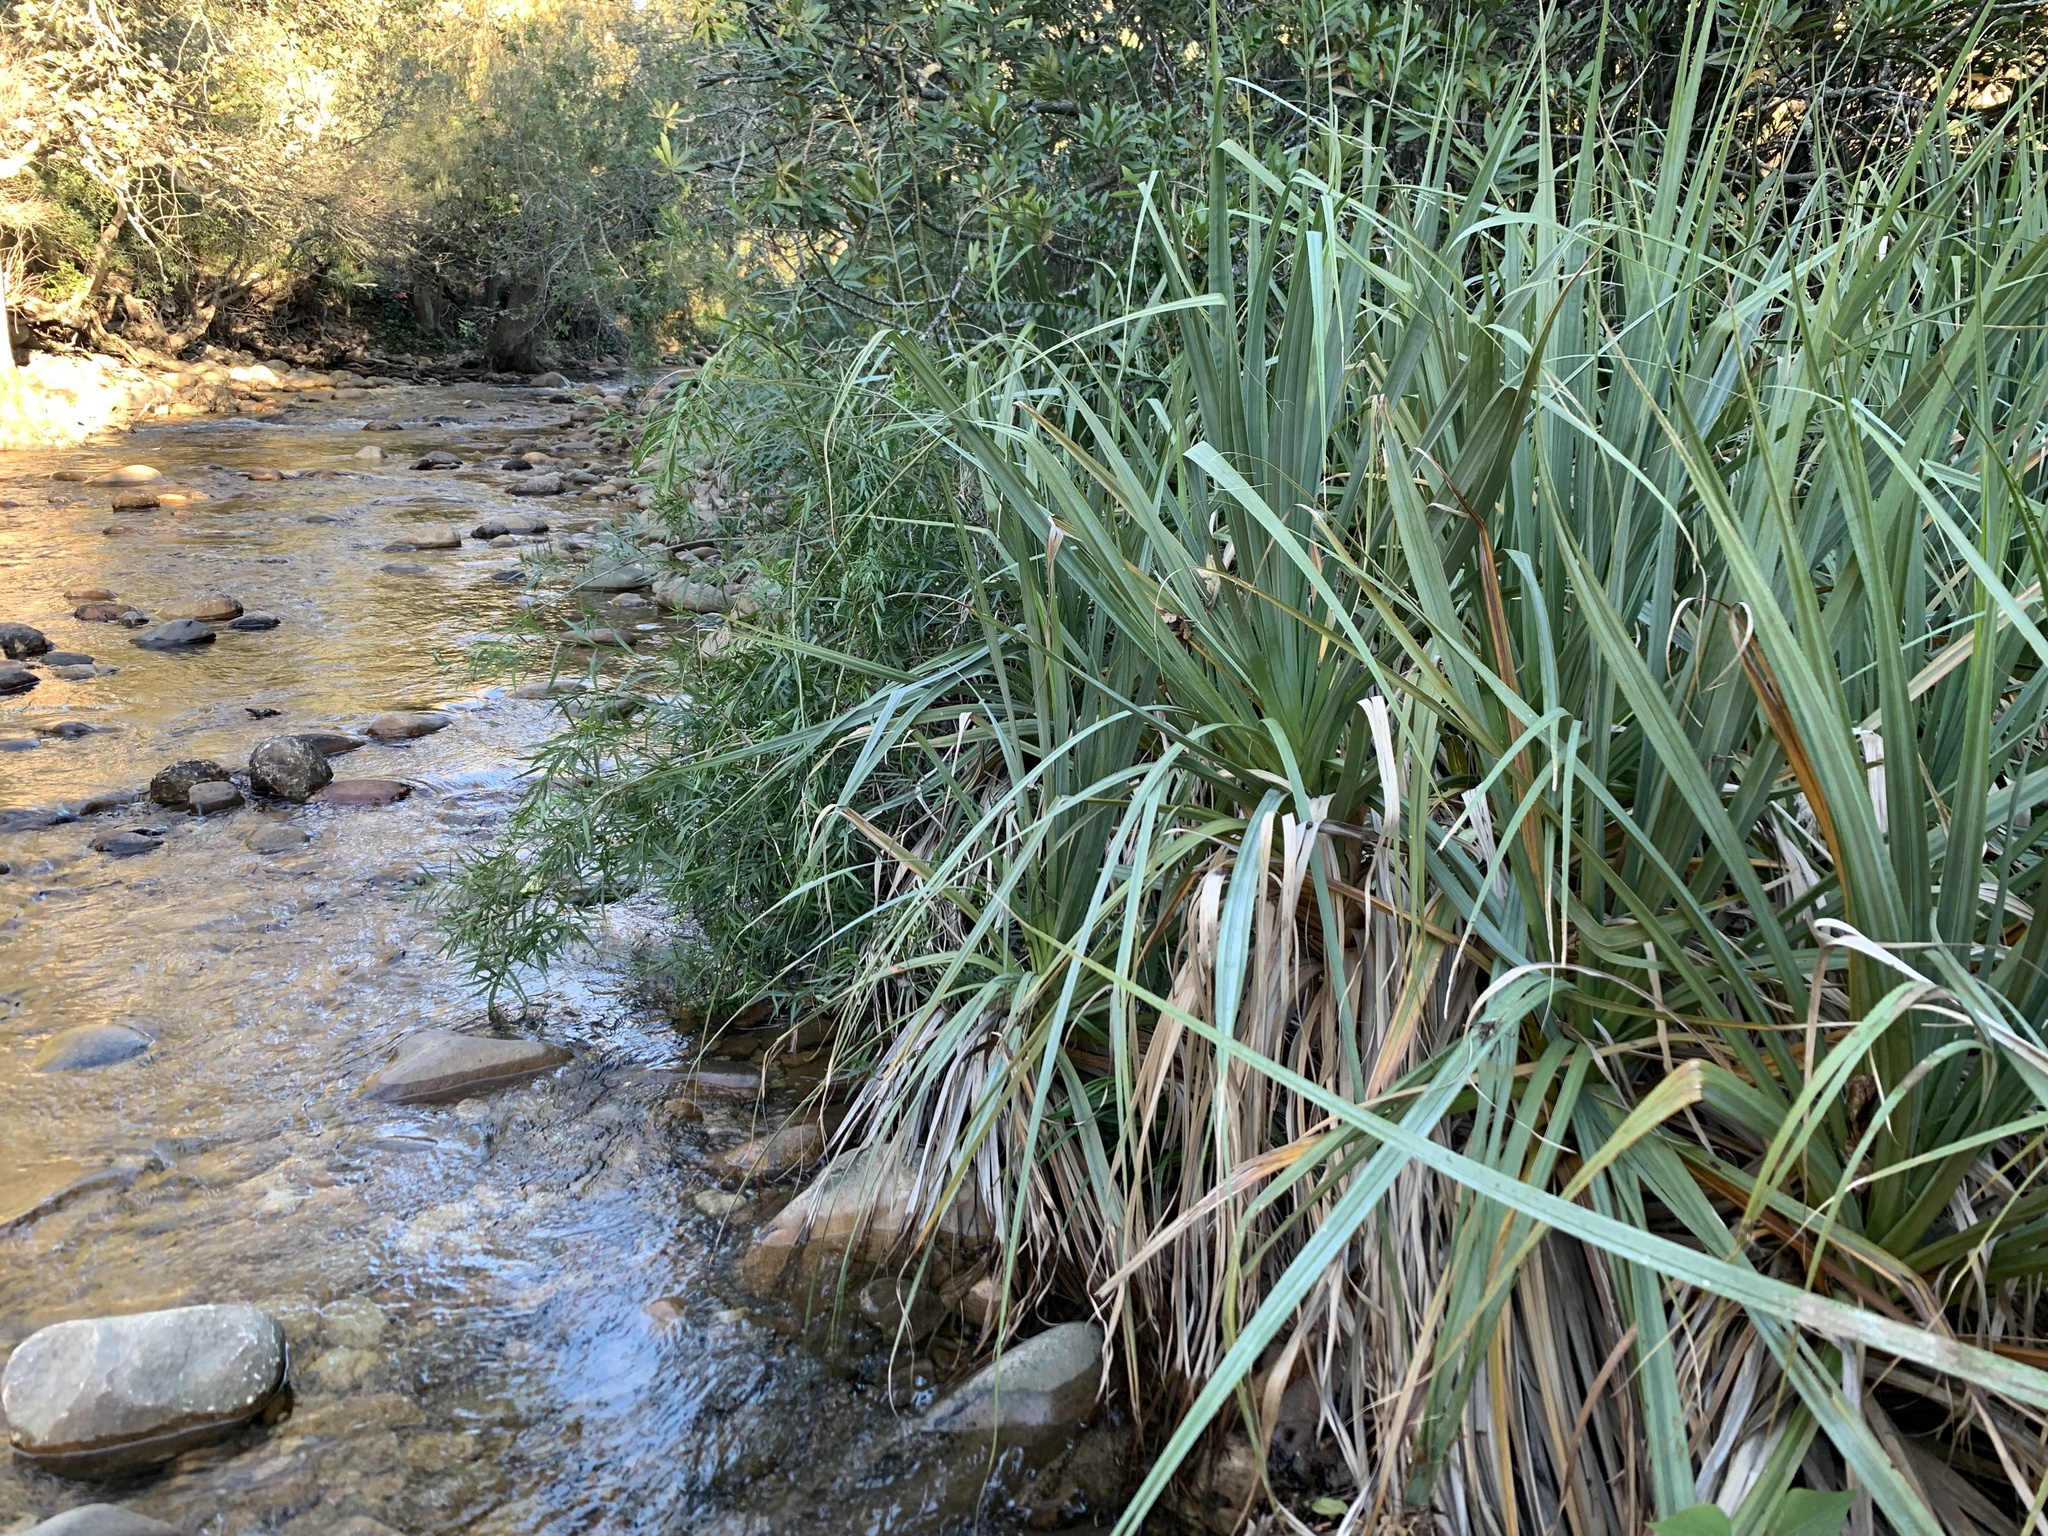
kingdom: Plantae
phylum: Tracheophyta
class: Liliopsida
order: Poales
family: Thurniaceae
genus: Prionium
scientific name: Prionium serratum
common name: Palmiet
